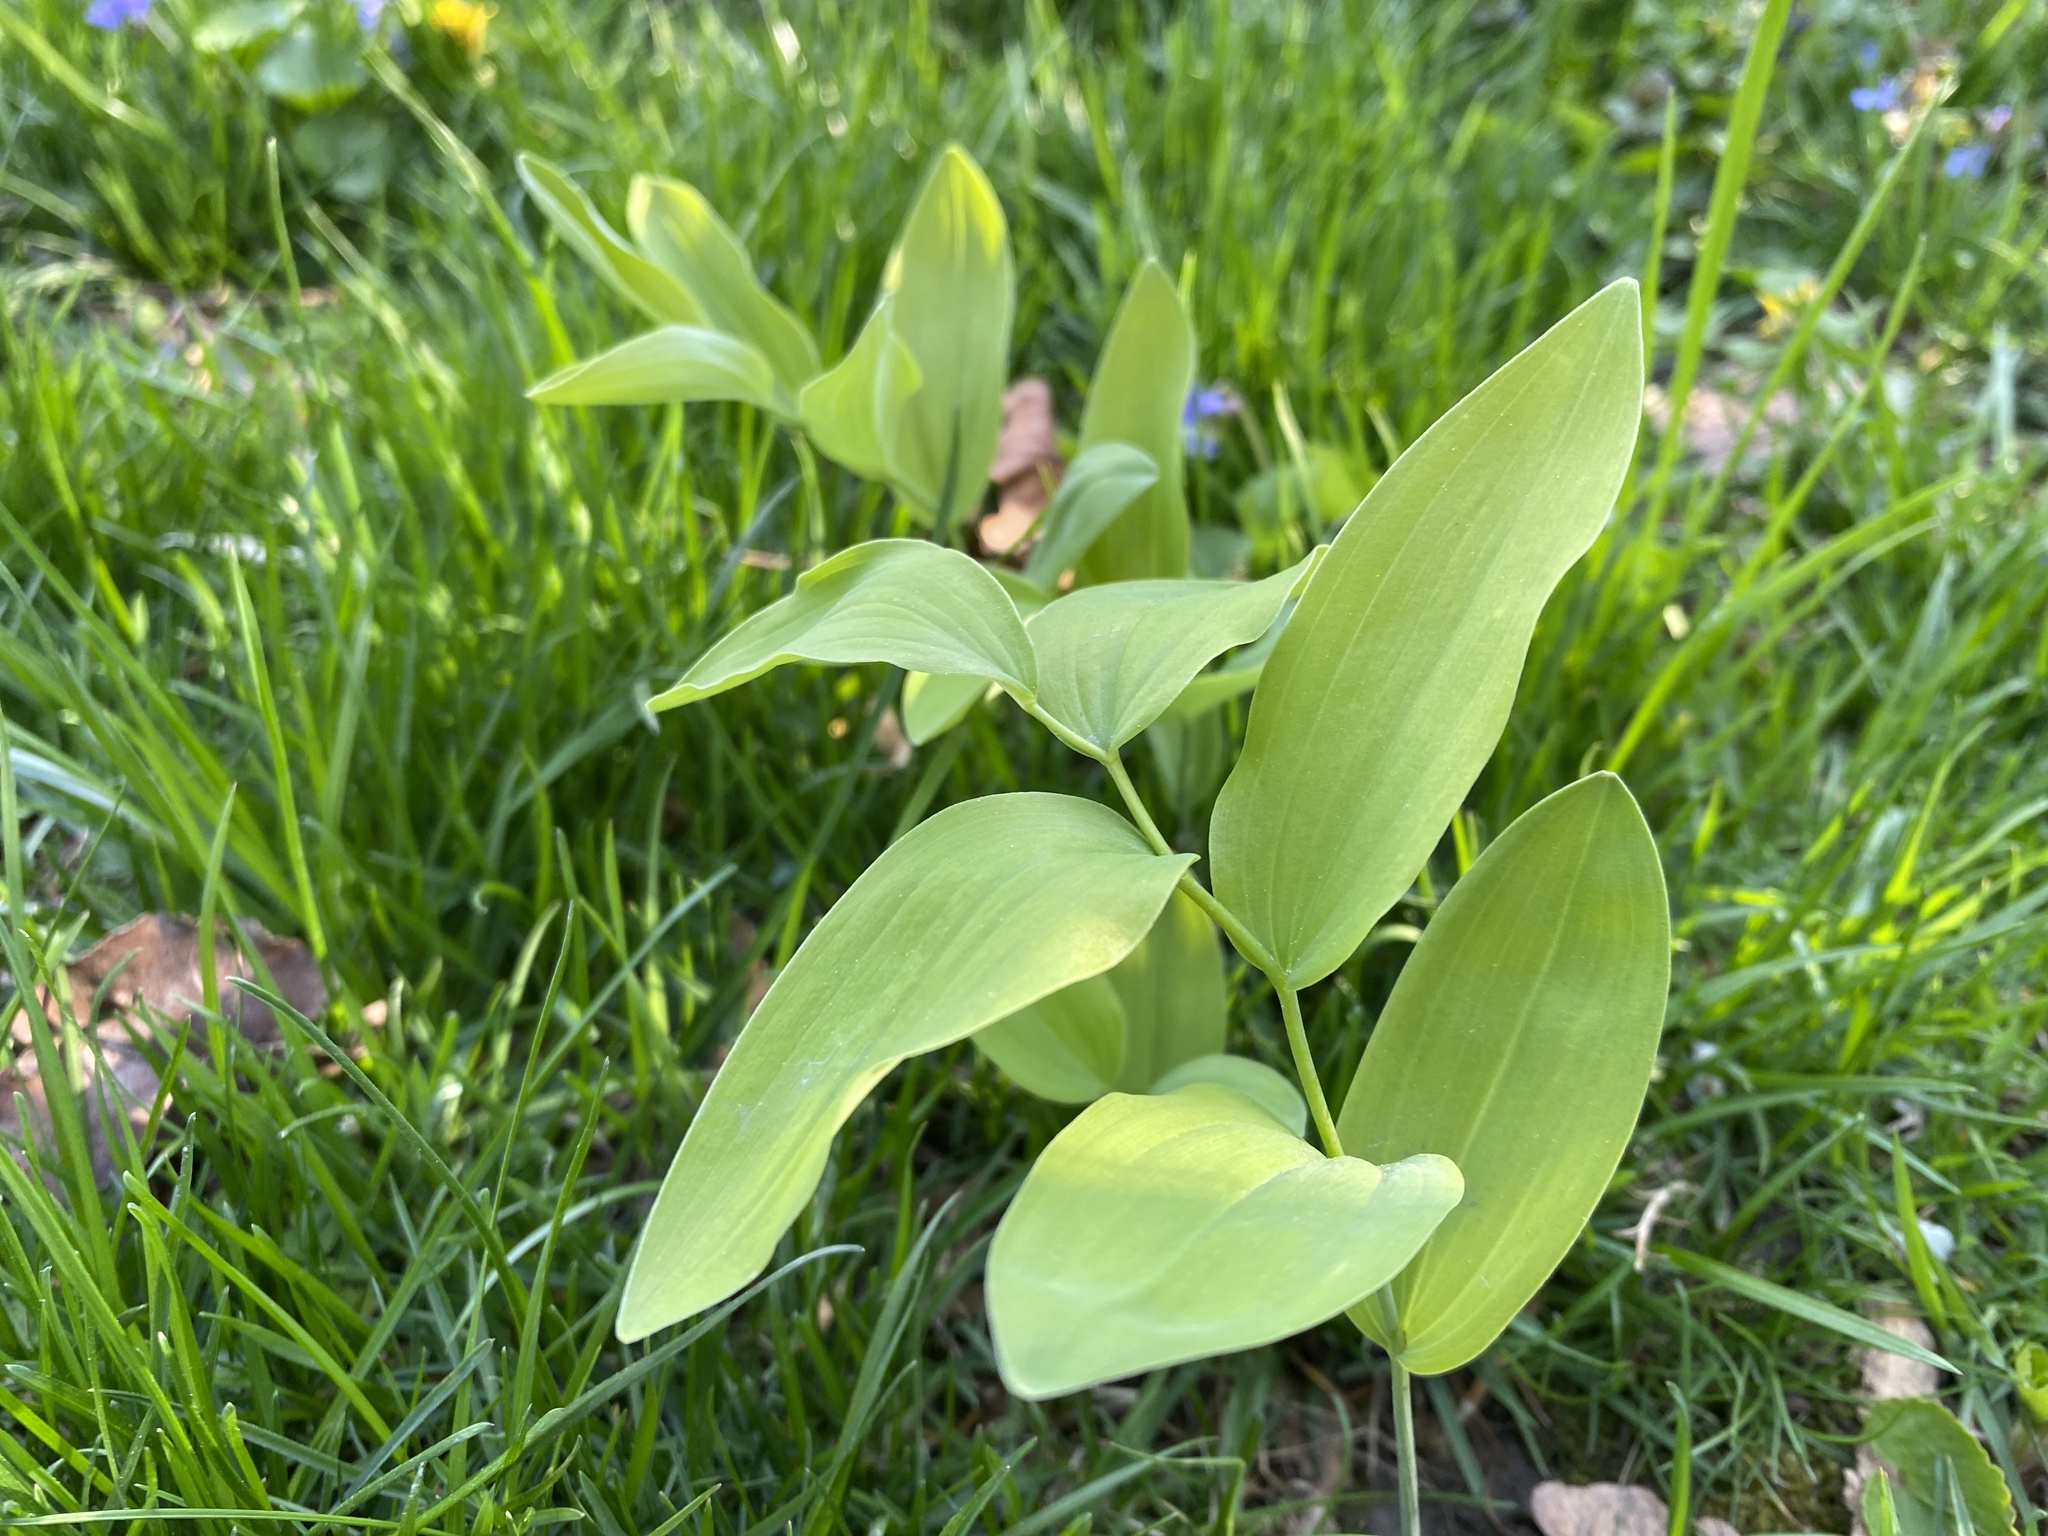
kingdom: Plantae
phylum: Tracheophyta
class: Liliopsida
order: Asparagales
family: Asparagaceae
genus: Polygonatum
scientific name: Polygonatum biflorum
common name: American solomon's-seal
